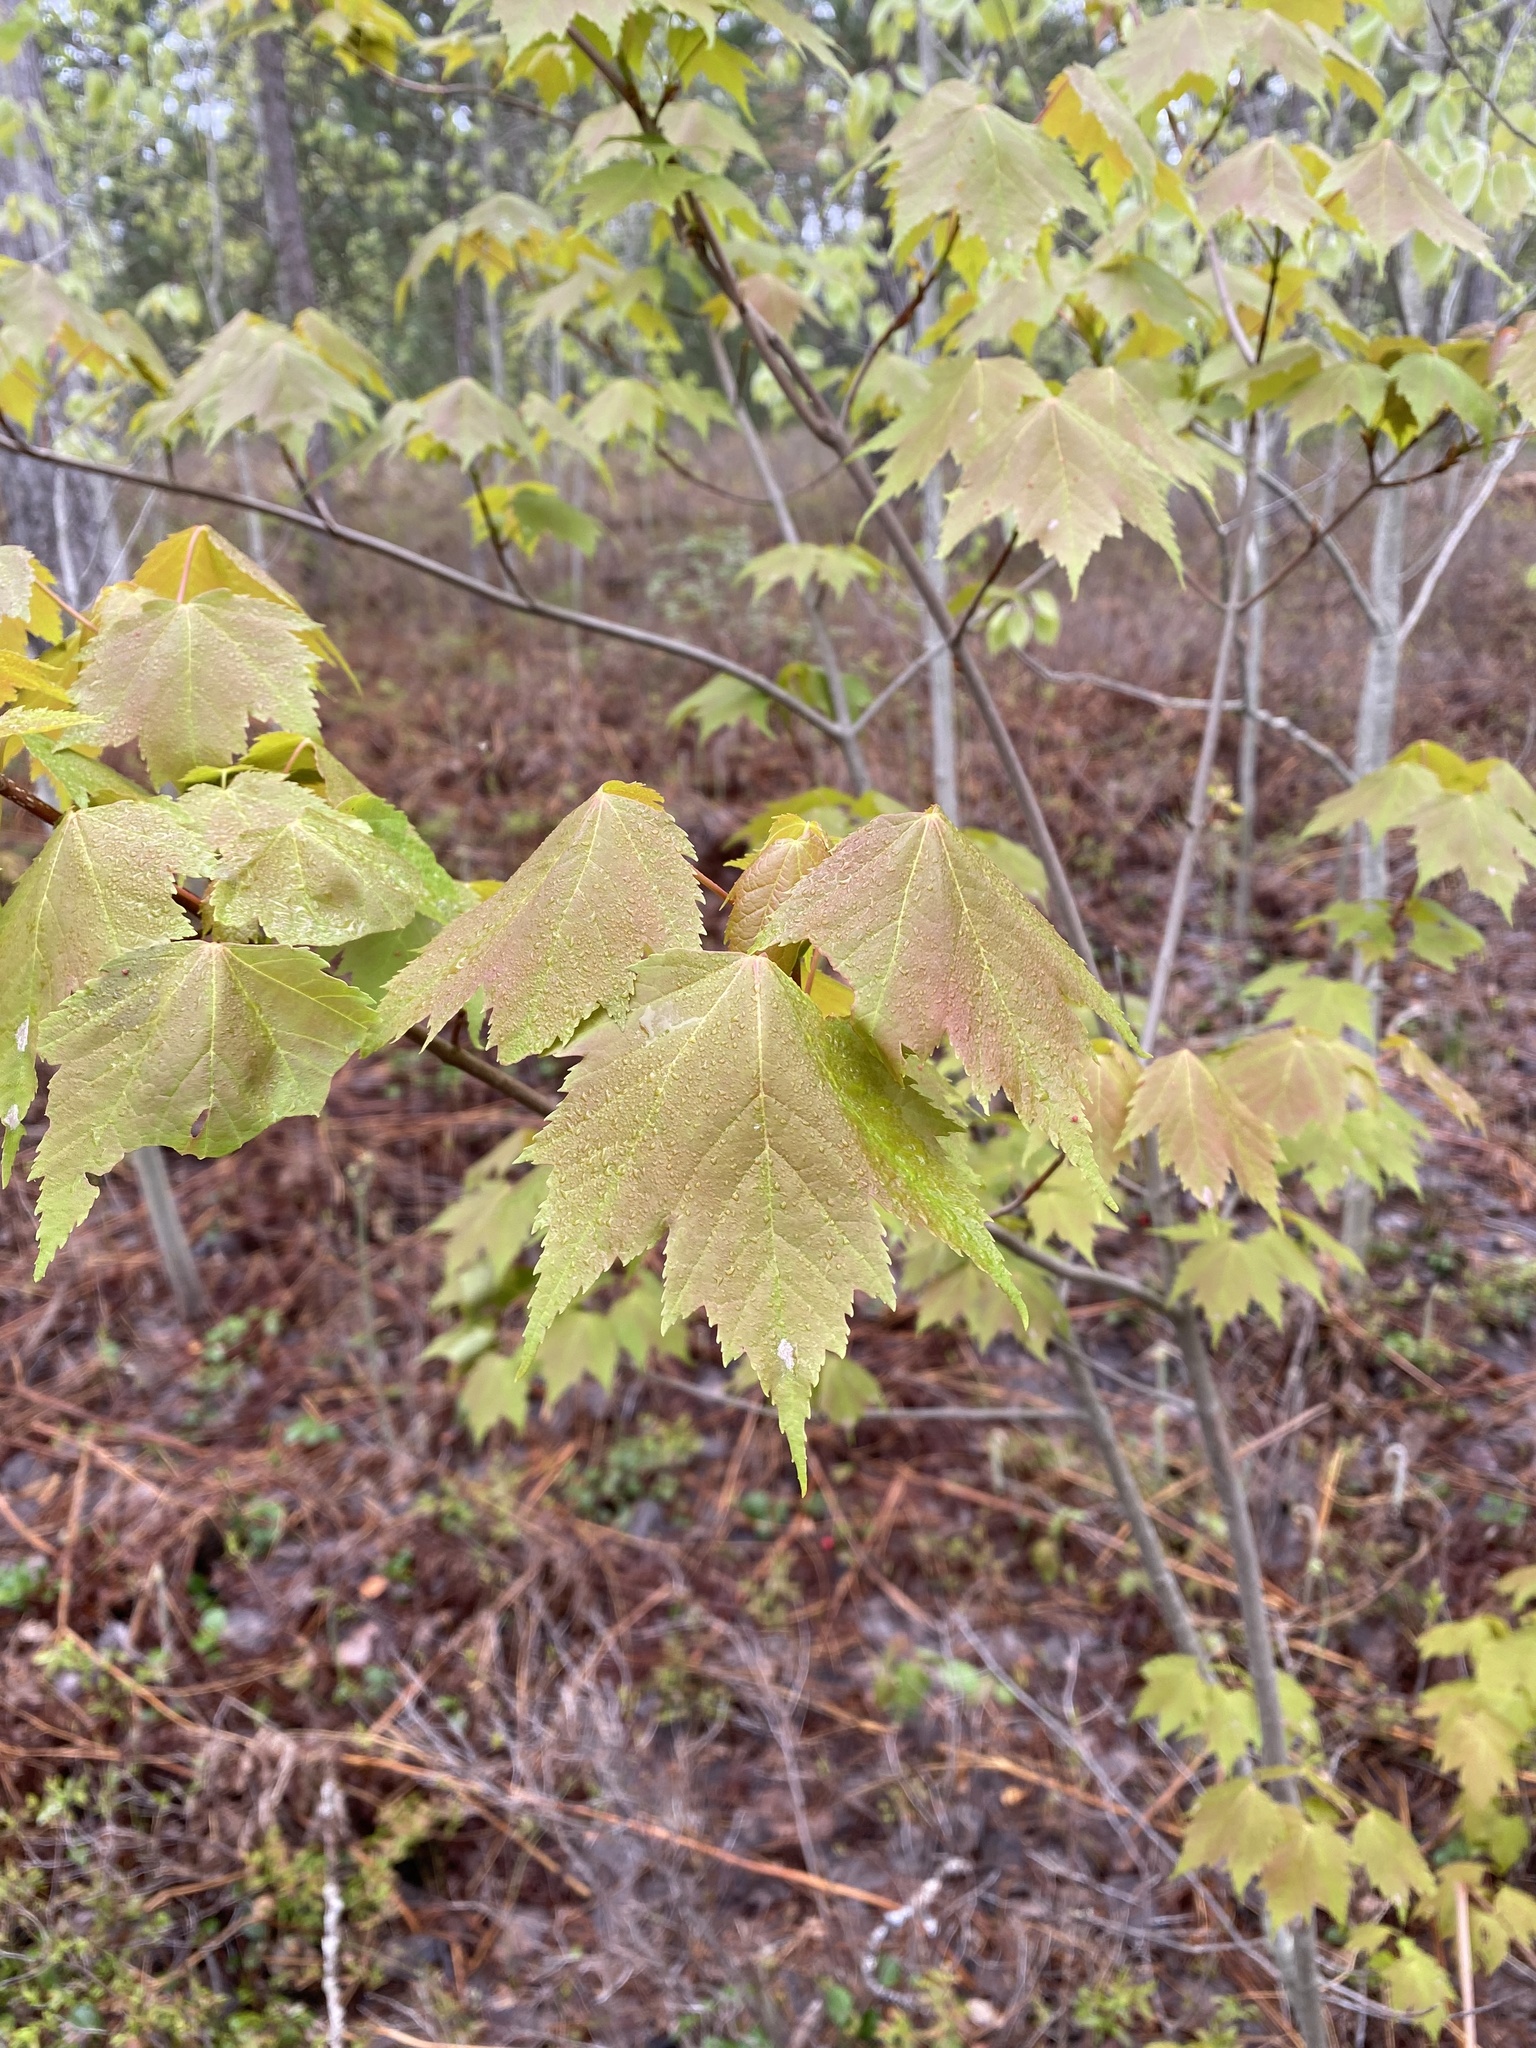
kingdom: Plantae
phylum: Tracheophyta
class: Magnoliopsida
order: Sapindales
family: Sapindaceae
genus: Acer
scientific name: Acer rubrum
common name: Red maple
